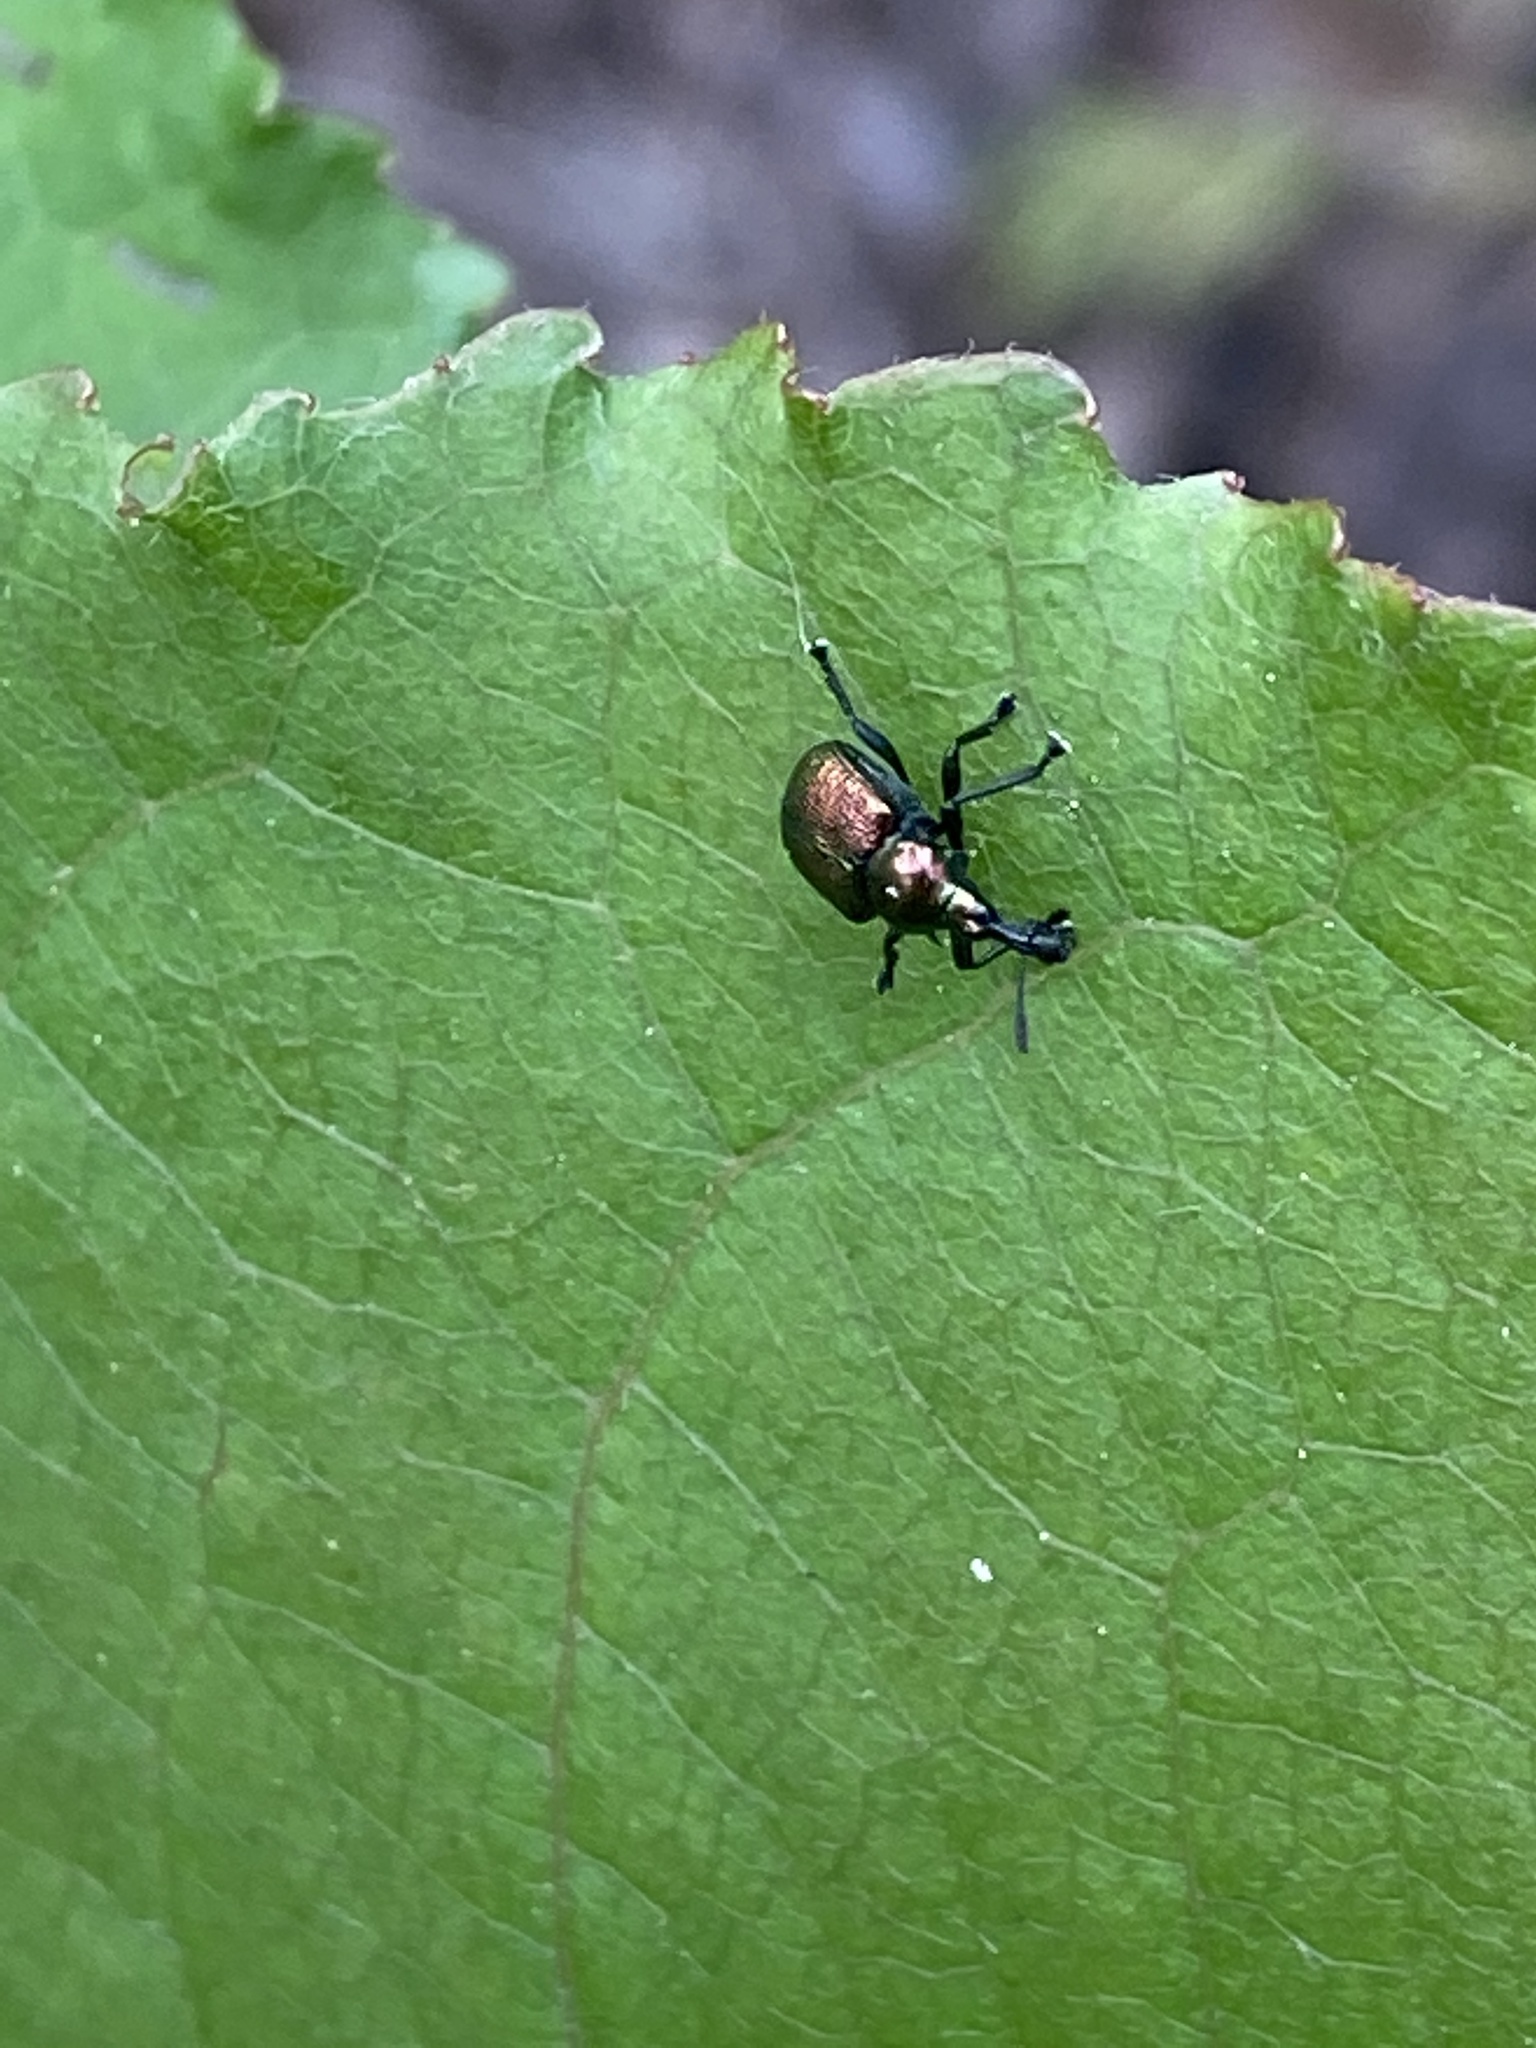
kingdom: Animalia
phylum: Arthropoda
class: Insecta
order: Coleoptera
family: Attelabidae
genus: Byctiscus
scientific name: Byctiscus populi
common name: Leaf-rolling weevil
